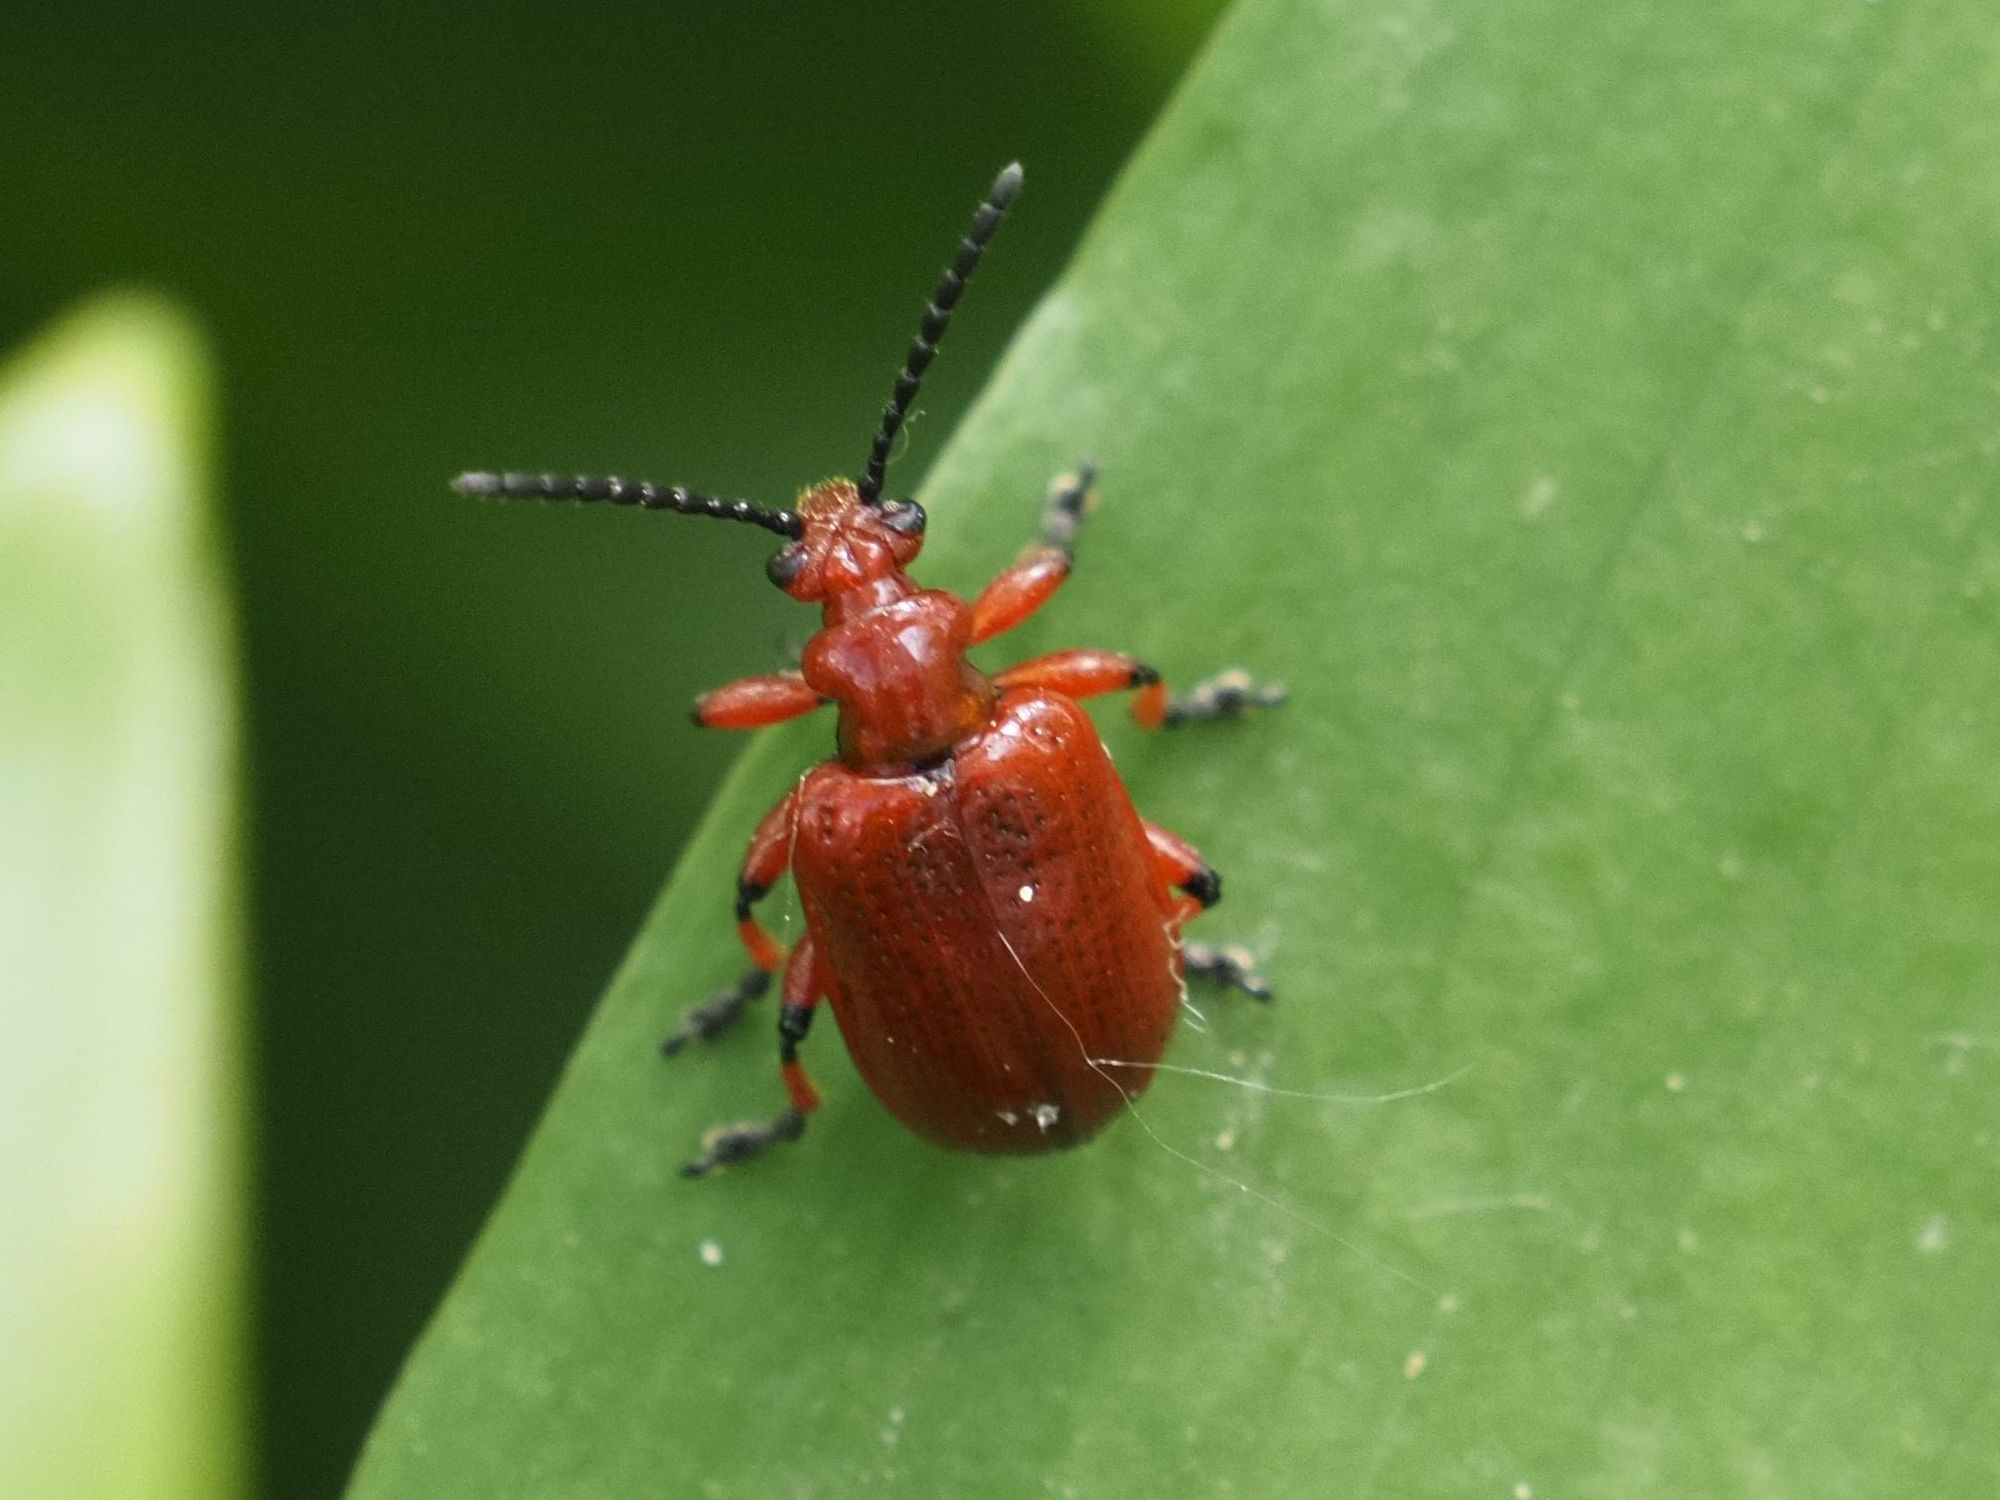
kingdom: Animalia
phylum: Arthropoda
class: Insecta
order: Coleoptera
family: Chrysomelidae
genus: Lilioceris
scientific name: Lilioceris merdigera
